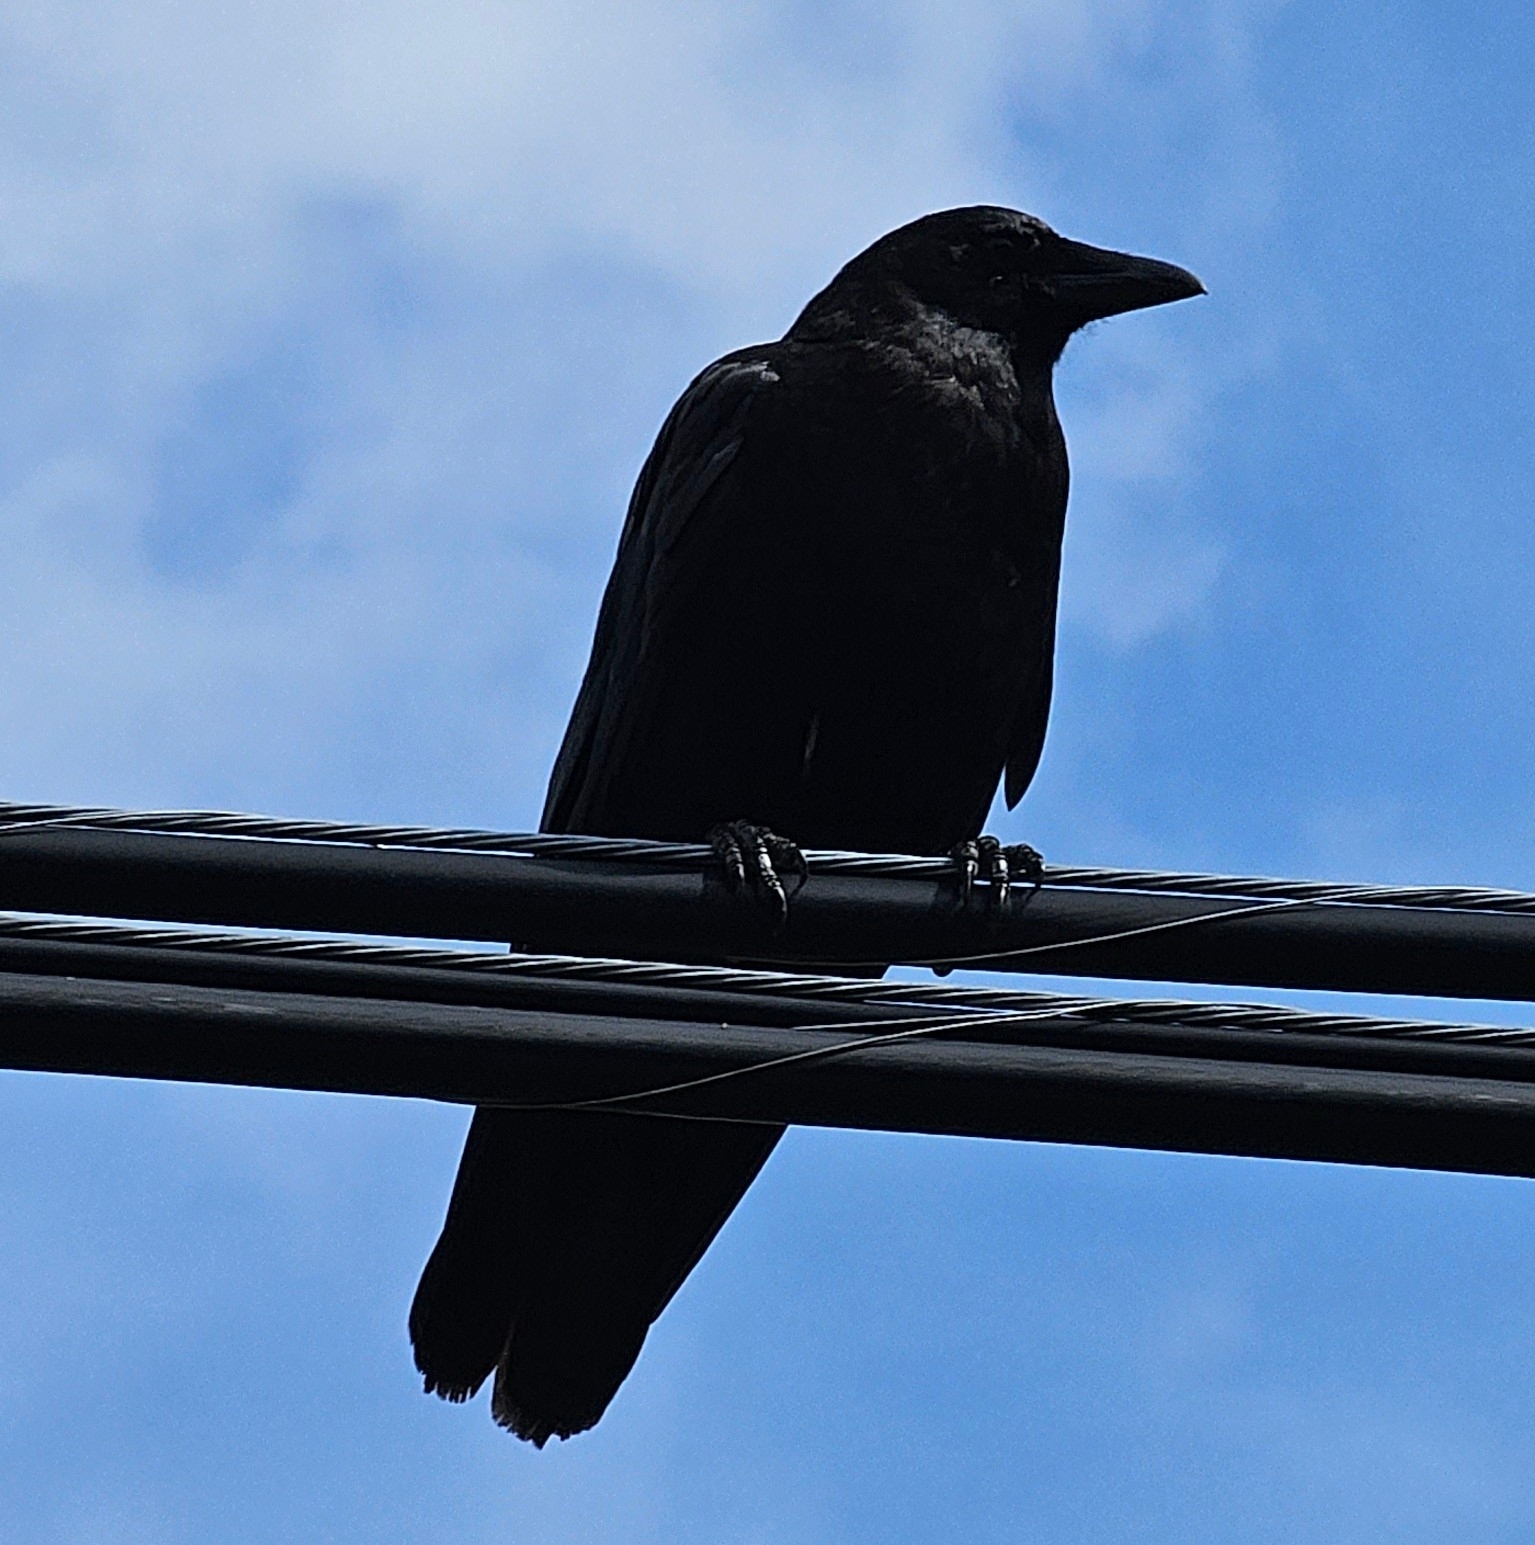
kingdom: Animalia
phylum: Chordata
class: Aves
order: Passeriformes
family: Corvidae
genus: Corvus
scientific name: Corvus brachyrhynchos
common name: American crow
